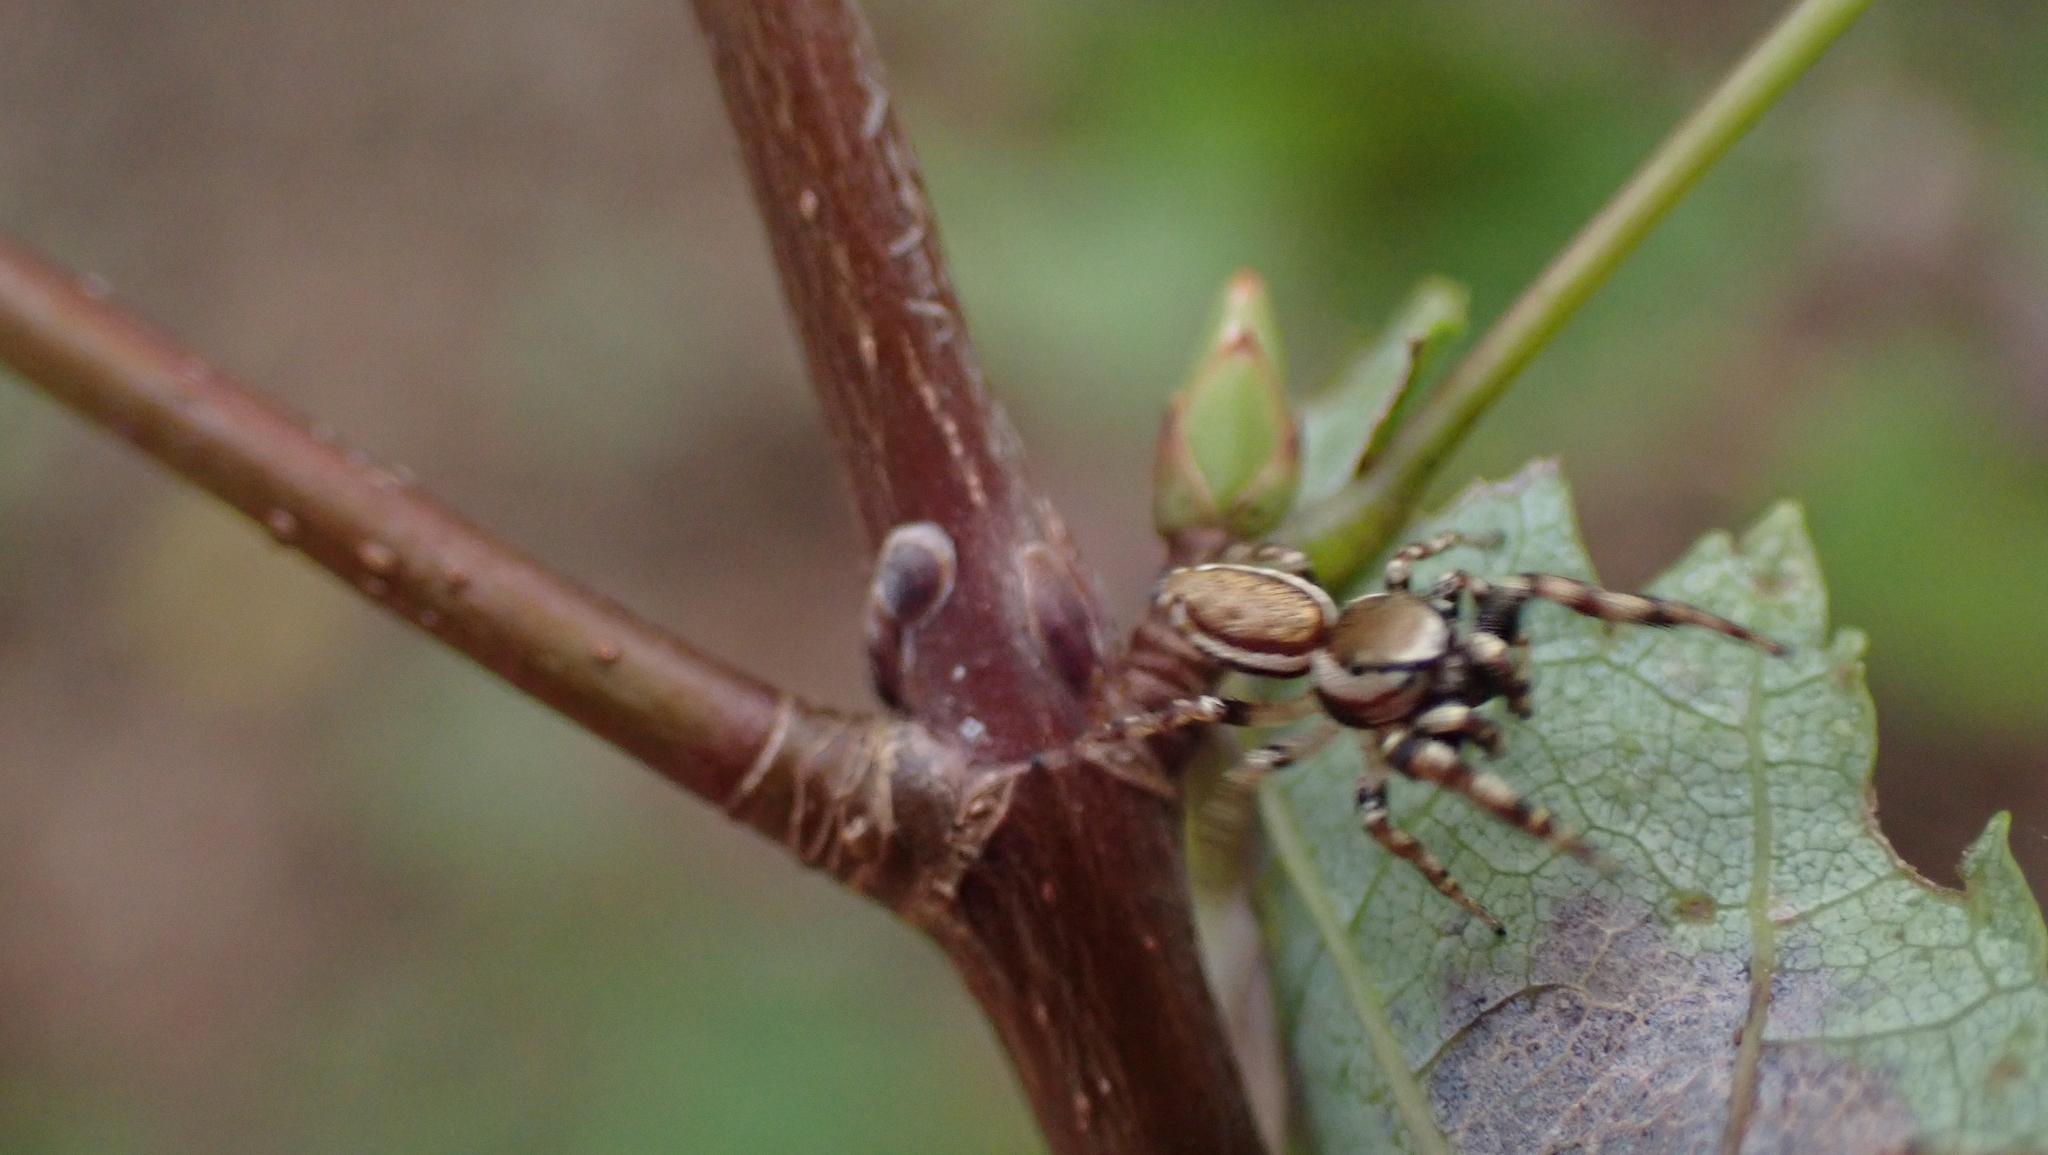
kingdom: Animalia
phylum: Arthropoda
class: Arachnida
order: Araneae
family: Salticidae
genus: Pelegrina
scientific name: Pelegrina proterva
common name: Common white-cheeked jumping spider
